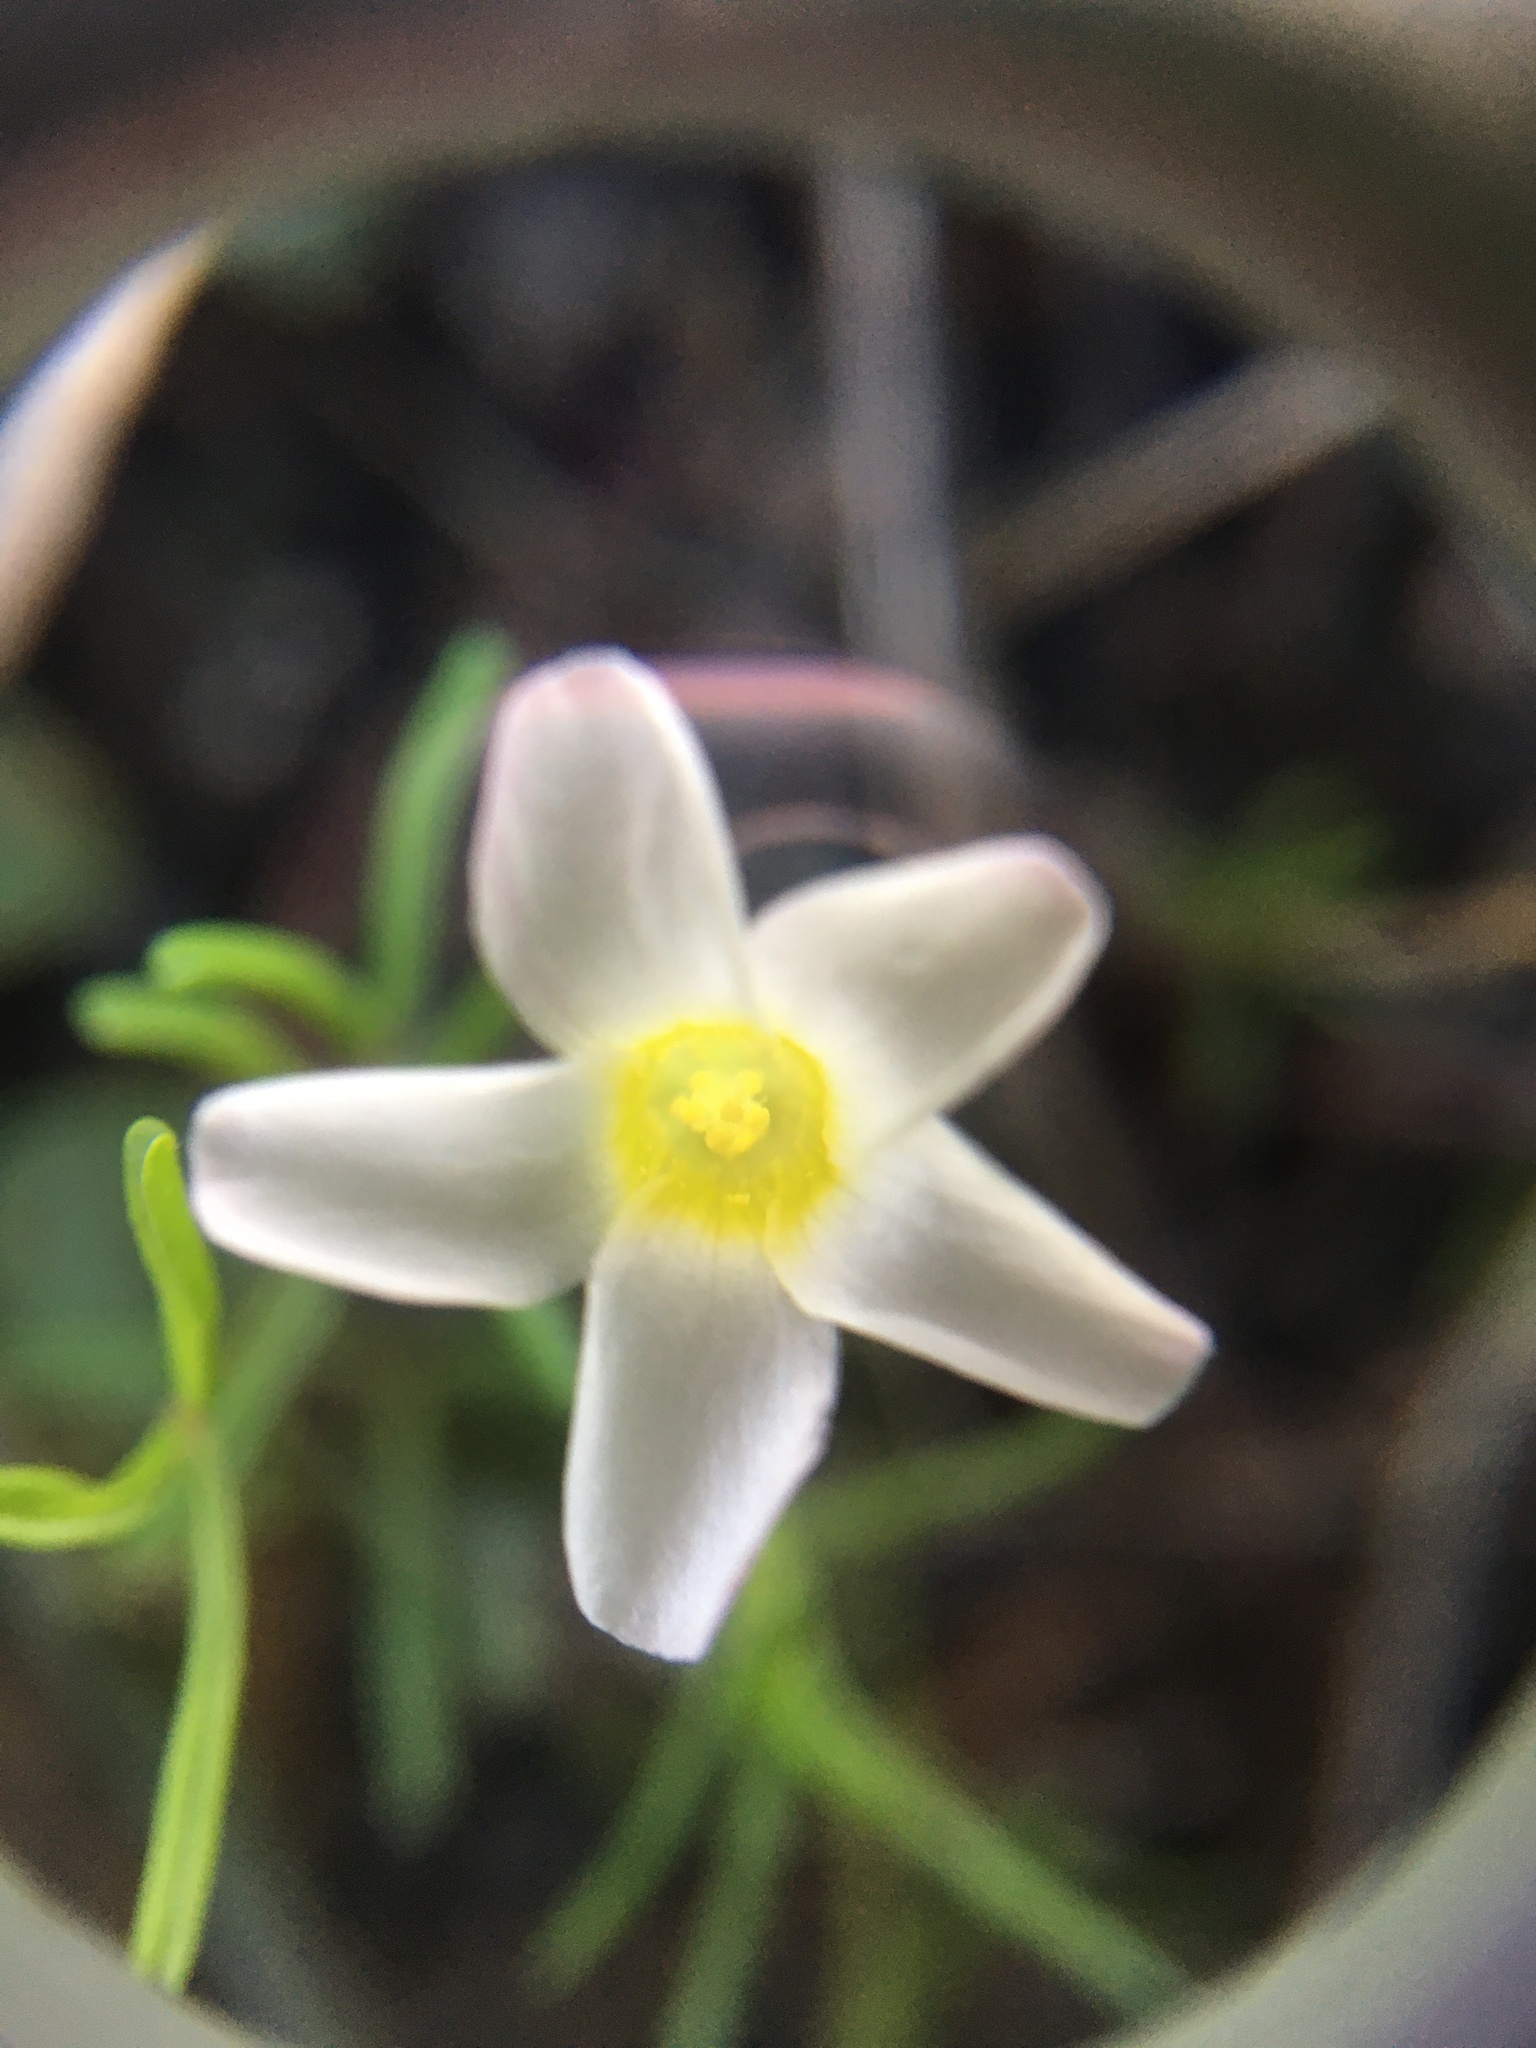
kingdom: Plantae
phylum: Tracheophyta
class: Magnoliopsida
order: Oxalidales
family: Oxalidaceae
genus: Oxalis
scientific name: Oxalis pusilla
